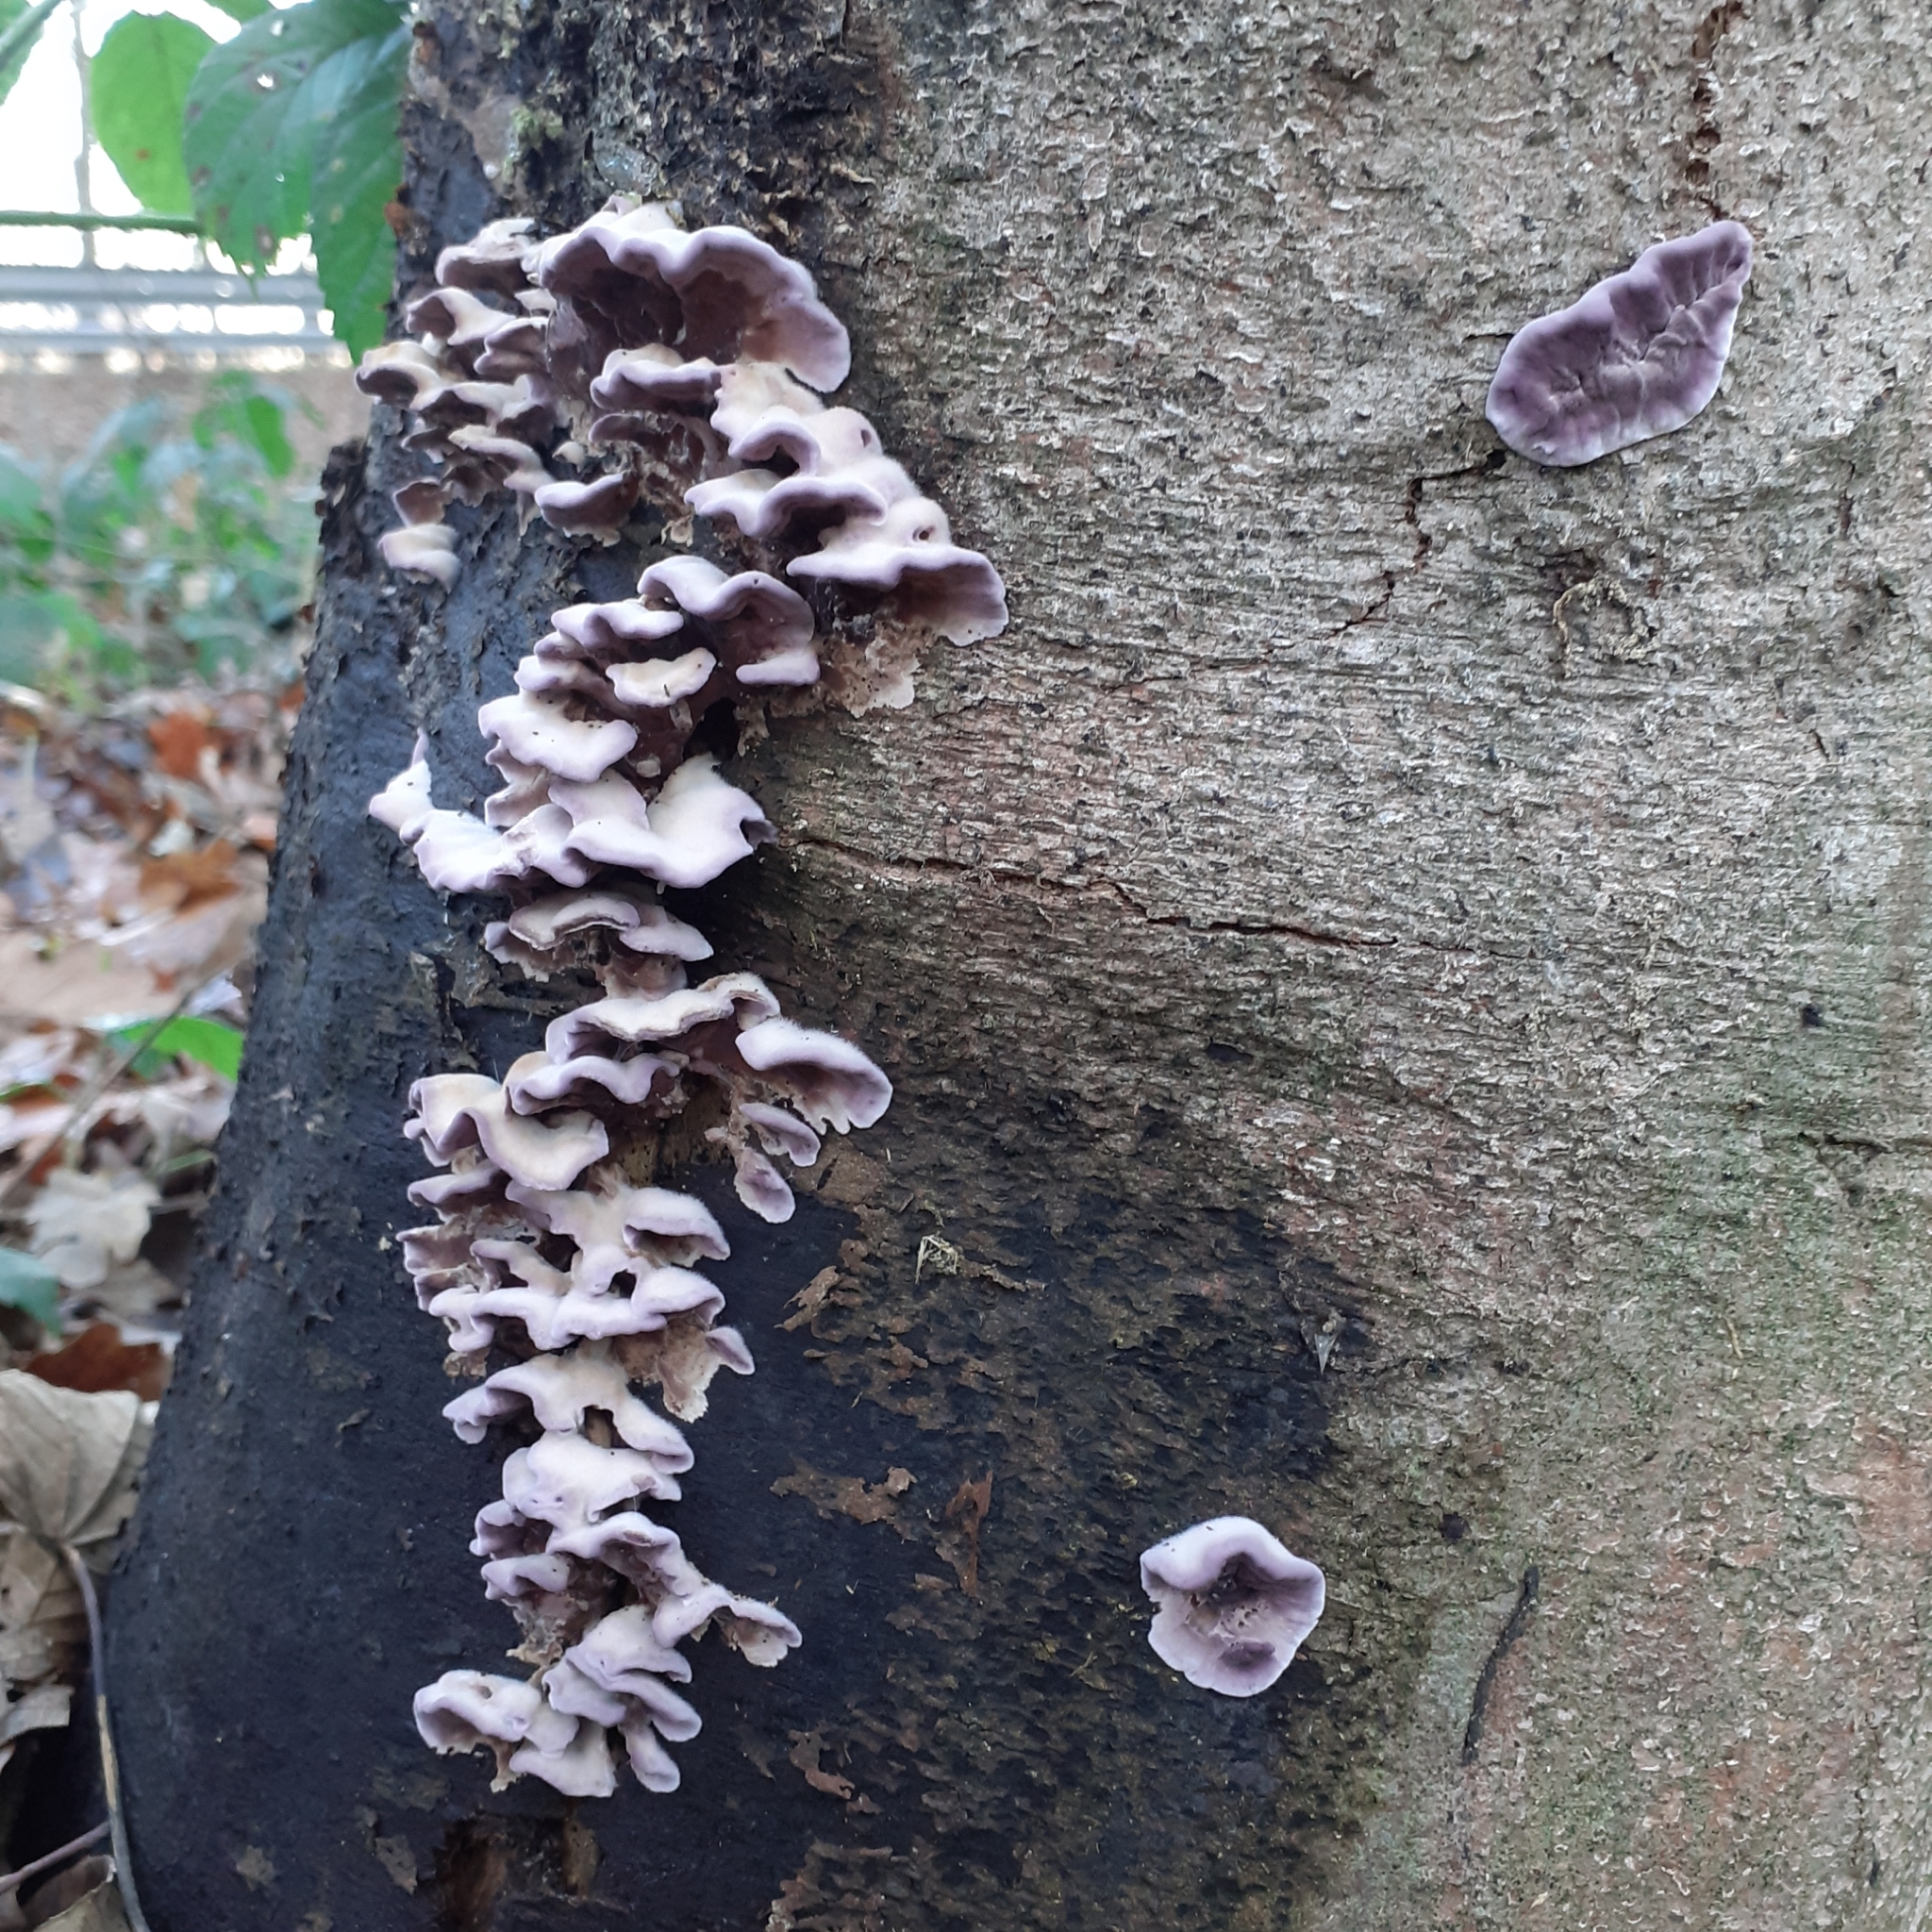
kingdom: Fungi
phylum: Basidiomycota
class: Agaricomycetes
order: Agaricales
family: Cyphellaceae
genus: Chondrostereum
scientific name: Chondrostereum purpureum
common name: Silver leaf disease
